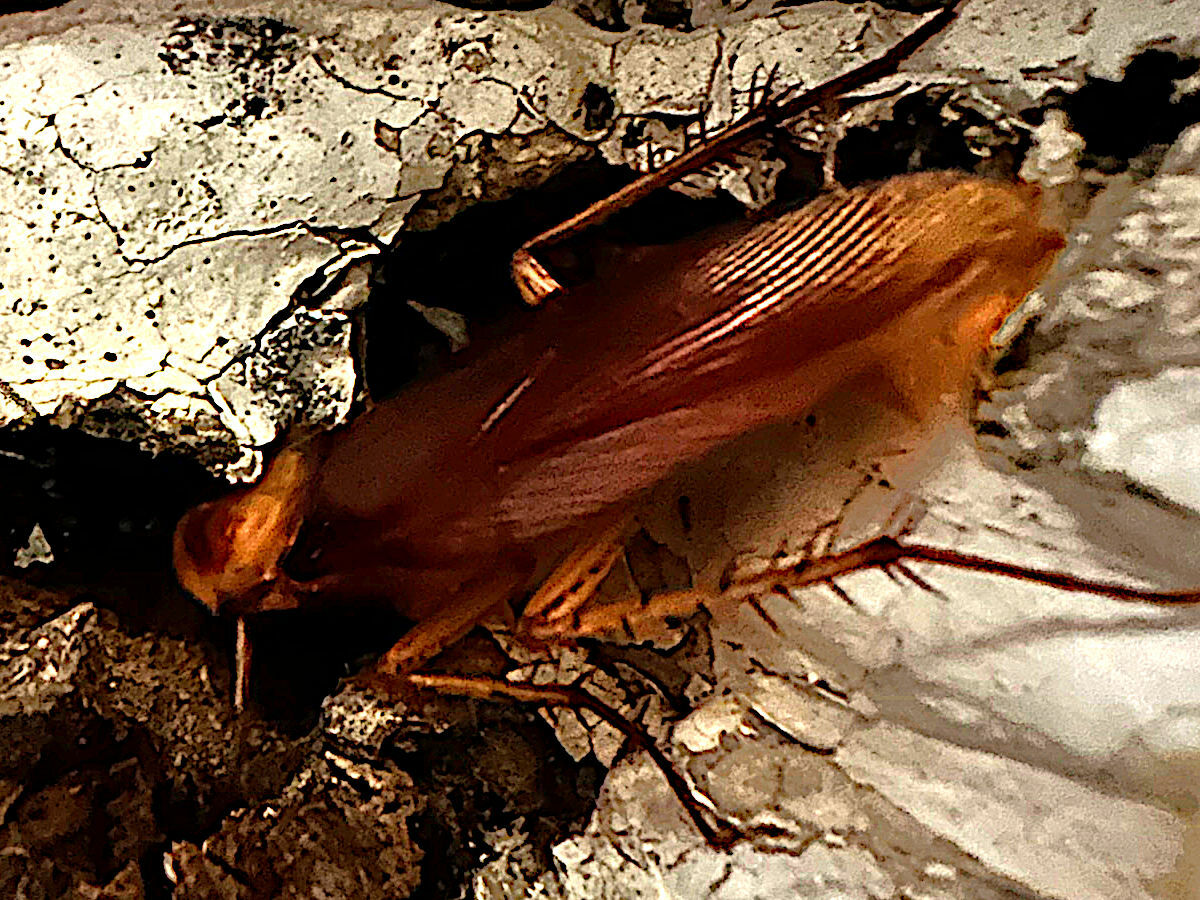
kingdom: Animalia
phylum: Arthropoda
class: Insecta
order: Blattodea
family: Blattidae
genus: Periplaneta
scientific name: Periplaneta americana
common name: American cockroach
